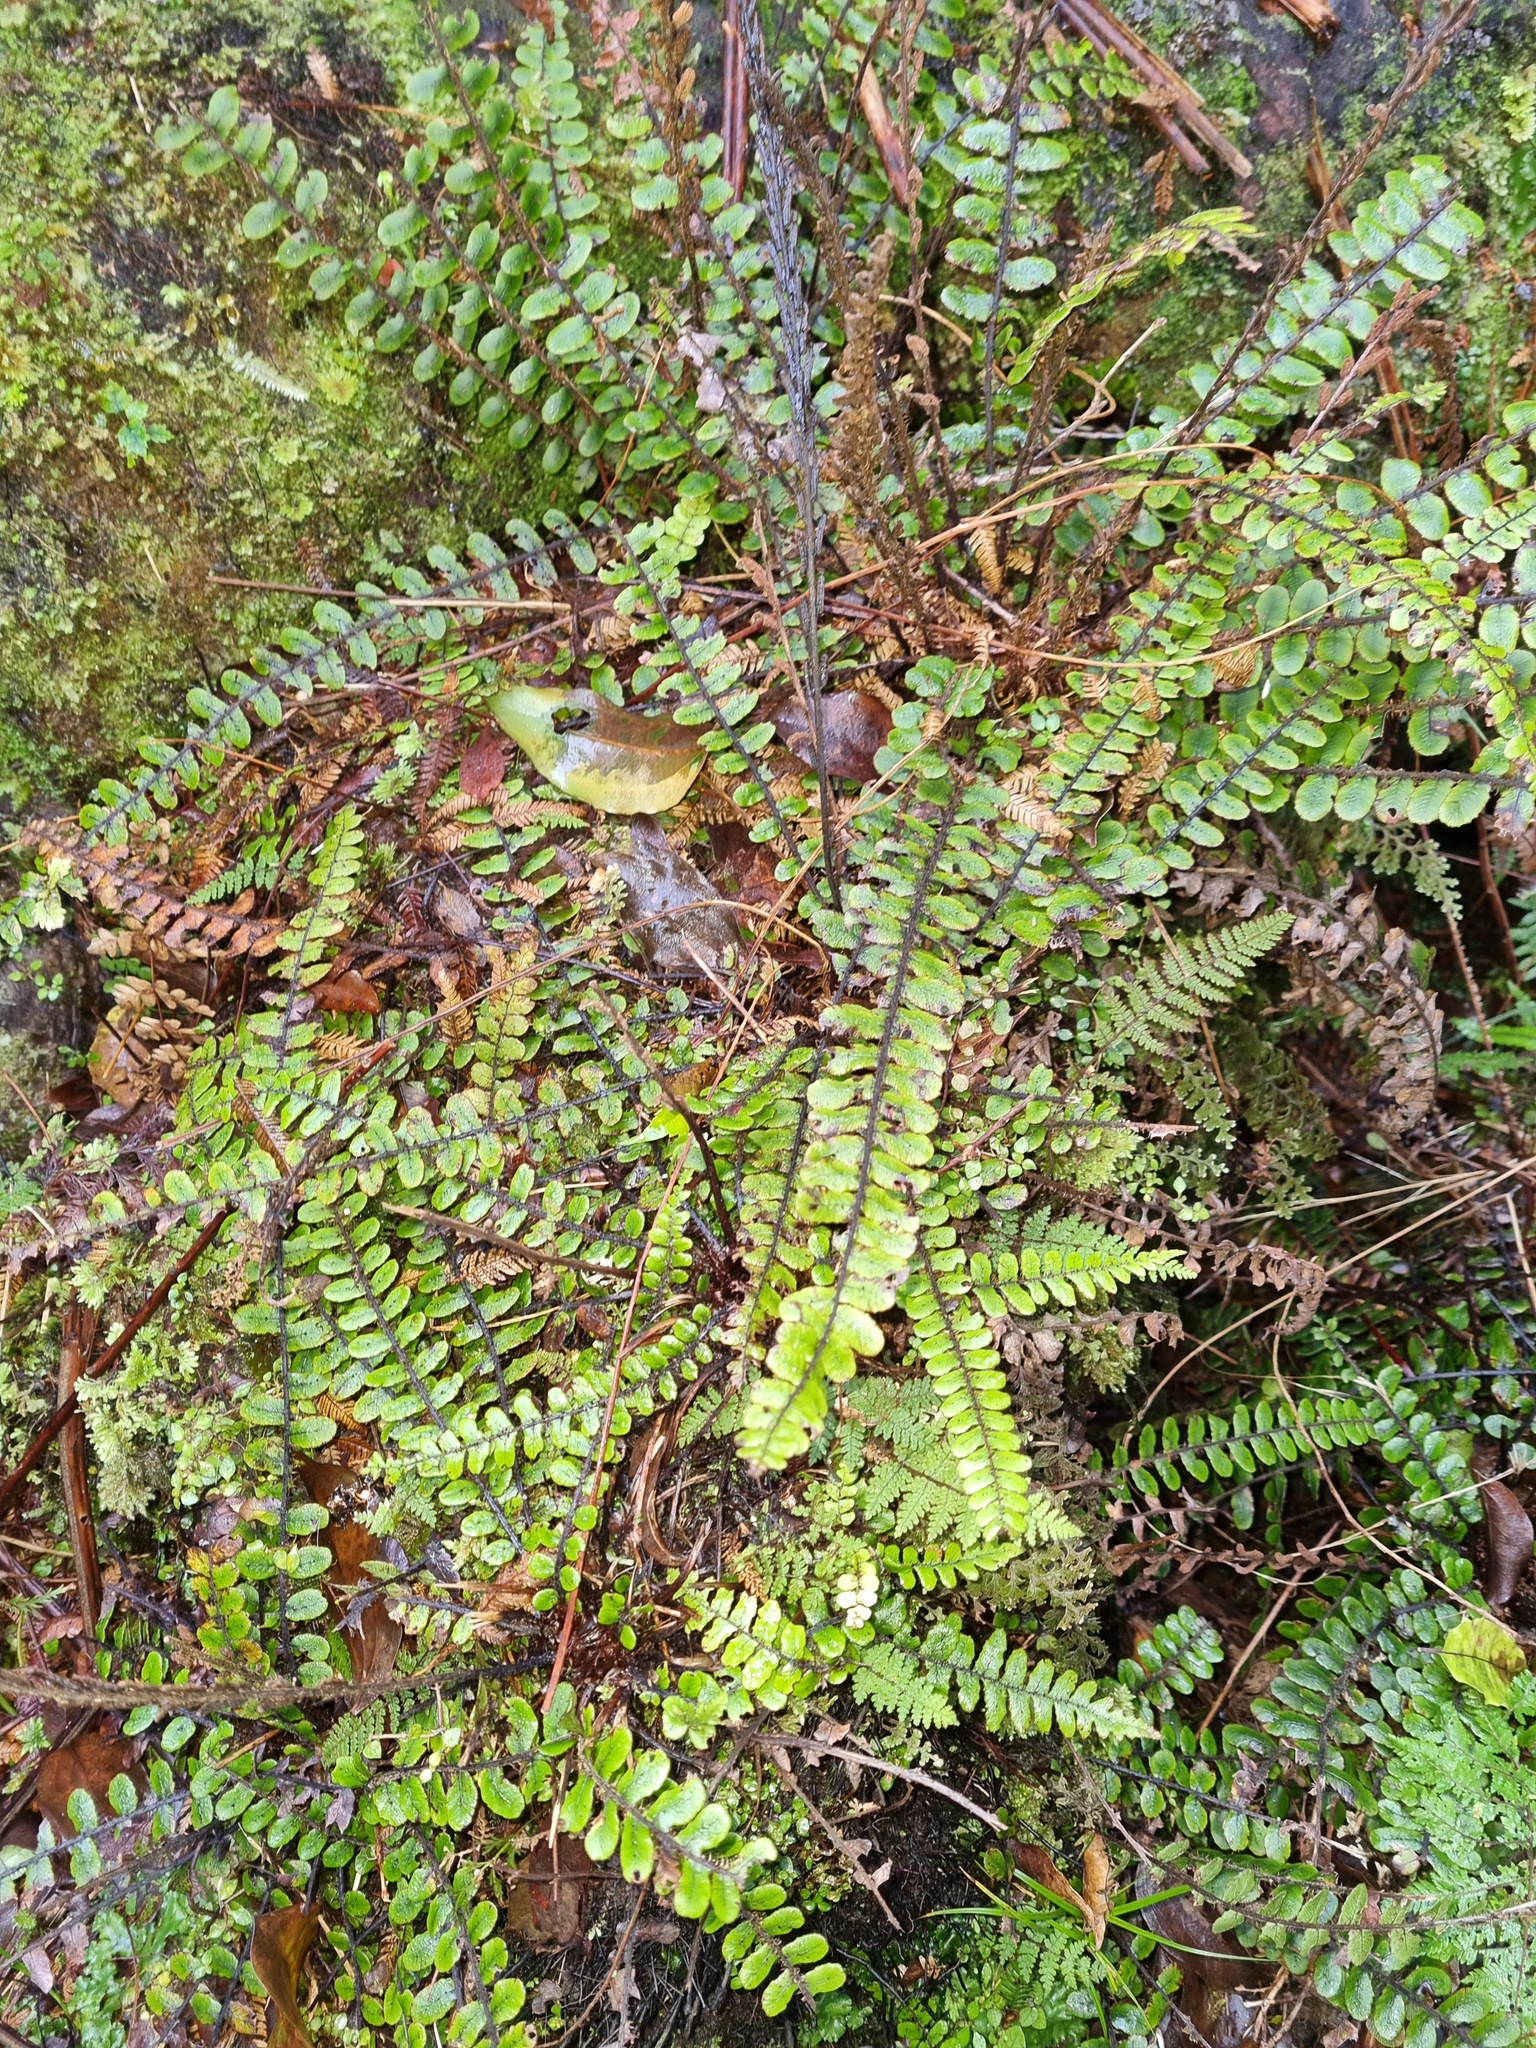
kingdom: Plantae
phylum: Tracheophyta
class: Polypodiopsida
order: Polypodiales
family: Blechnaceae
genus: Cranfillia
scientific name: Cranfillia fluviatilis
